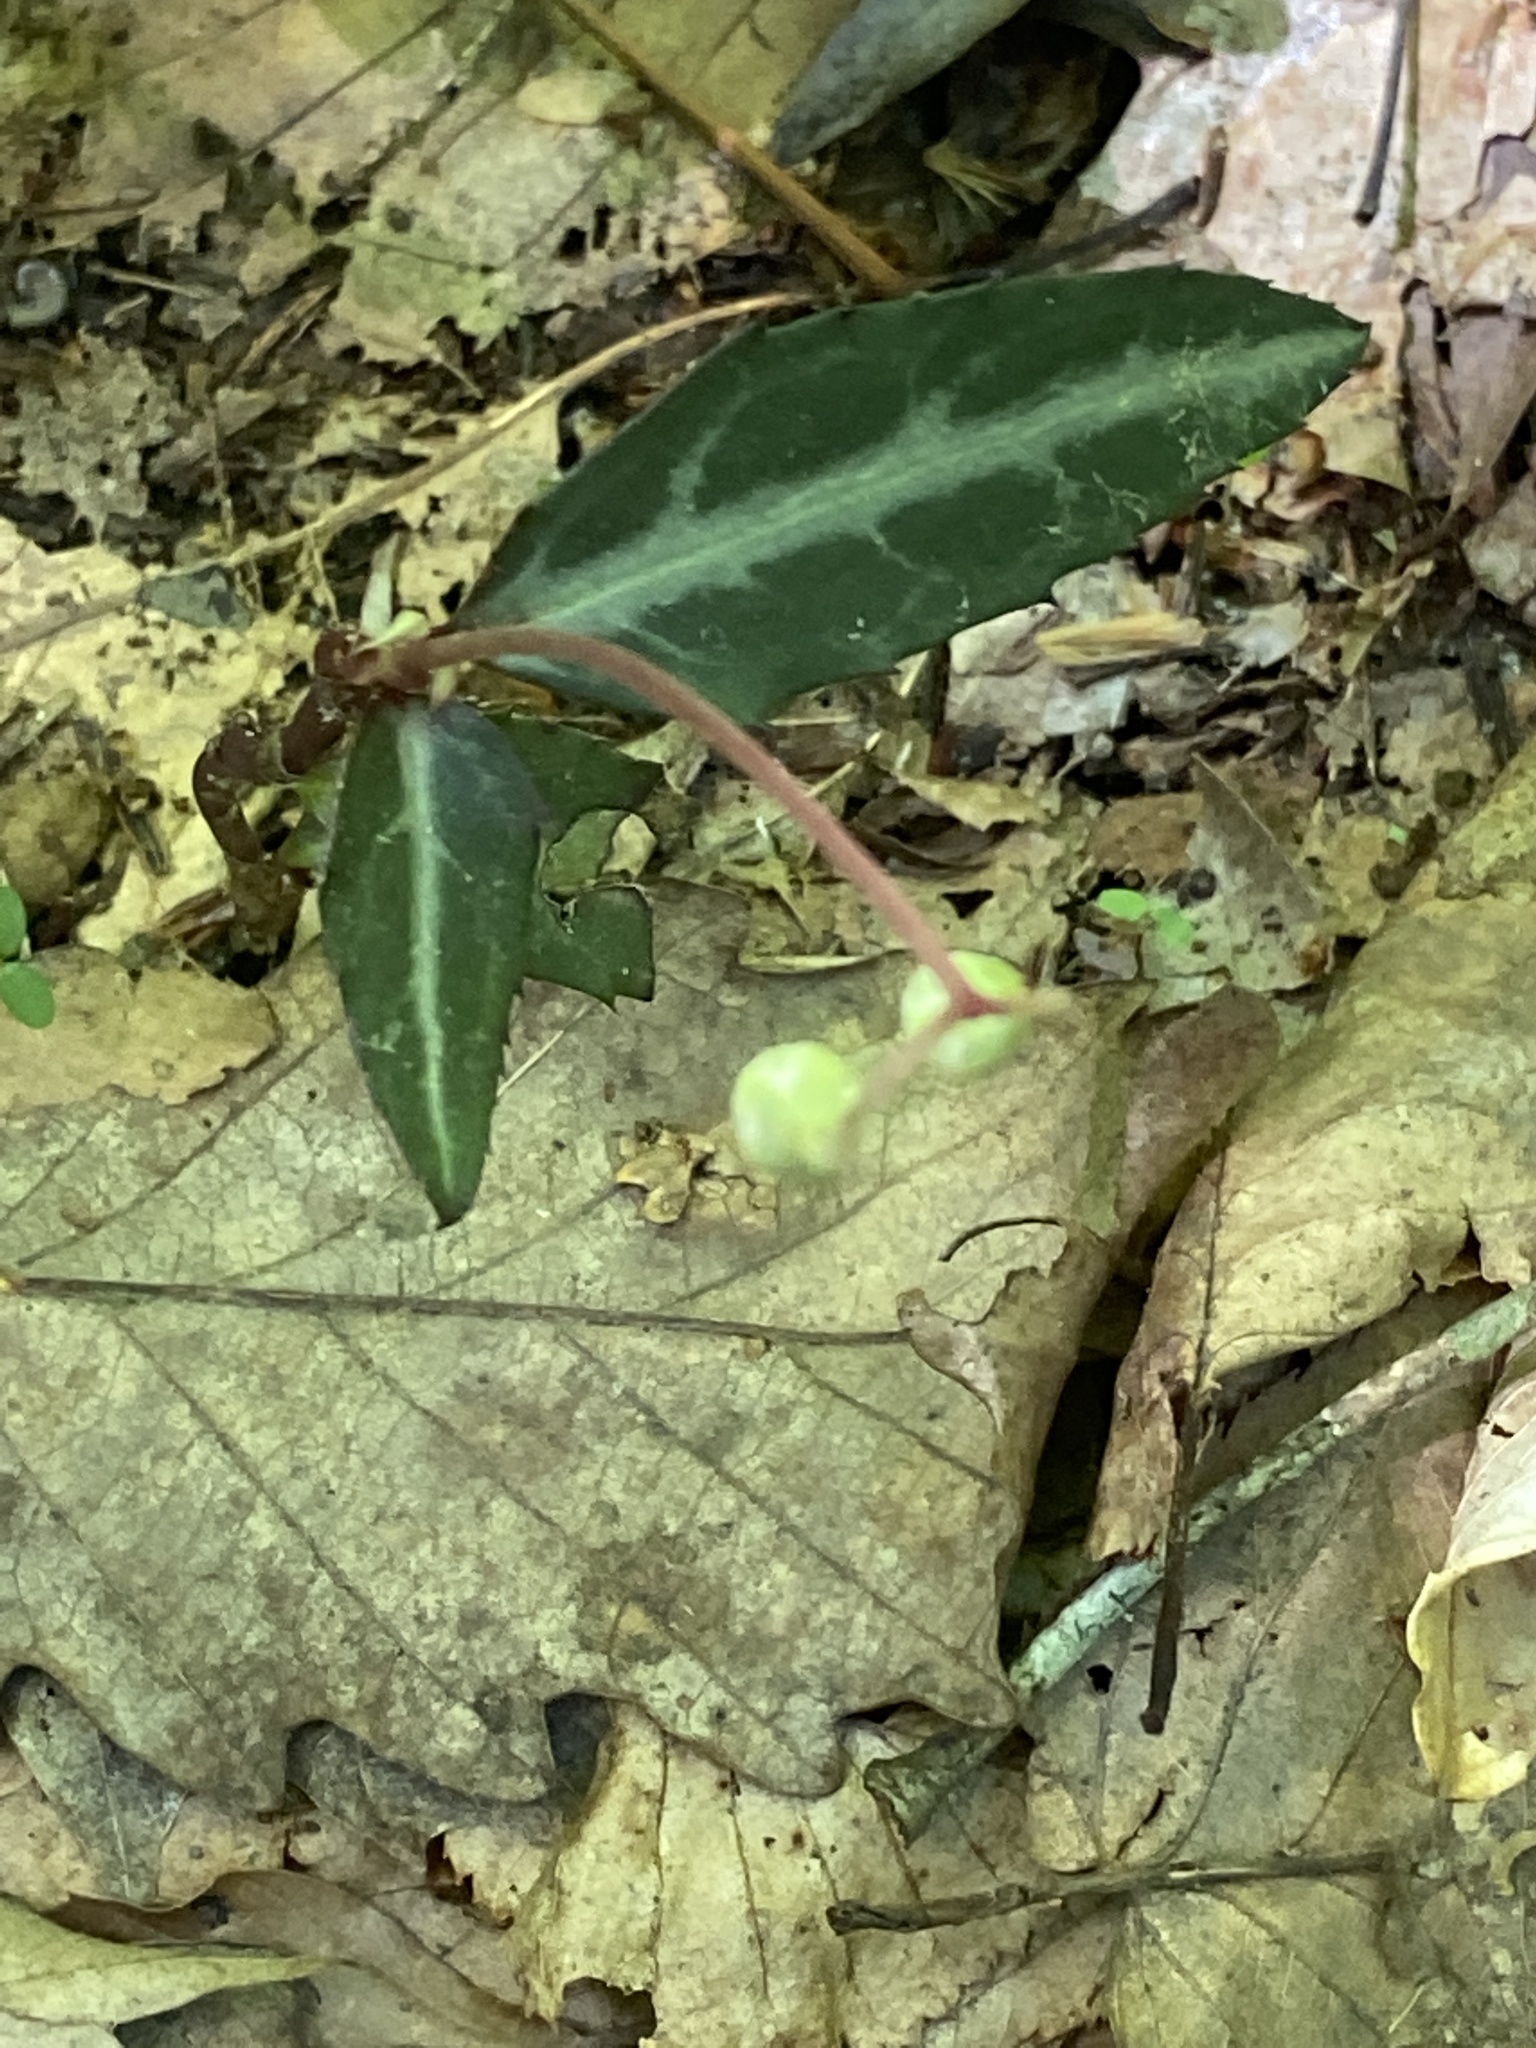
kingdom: Plantae
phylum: Tracheophyta
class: Magnoliopsida
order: Ericales
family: Ericaceae
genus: Chimaphila
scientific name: Chimaphila maculata
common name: Spotted pipsissewa
